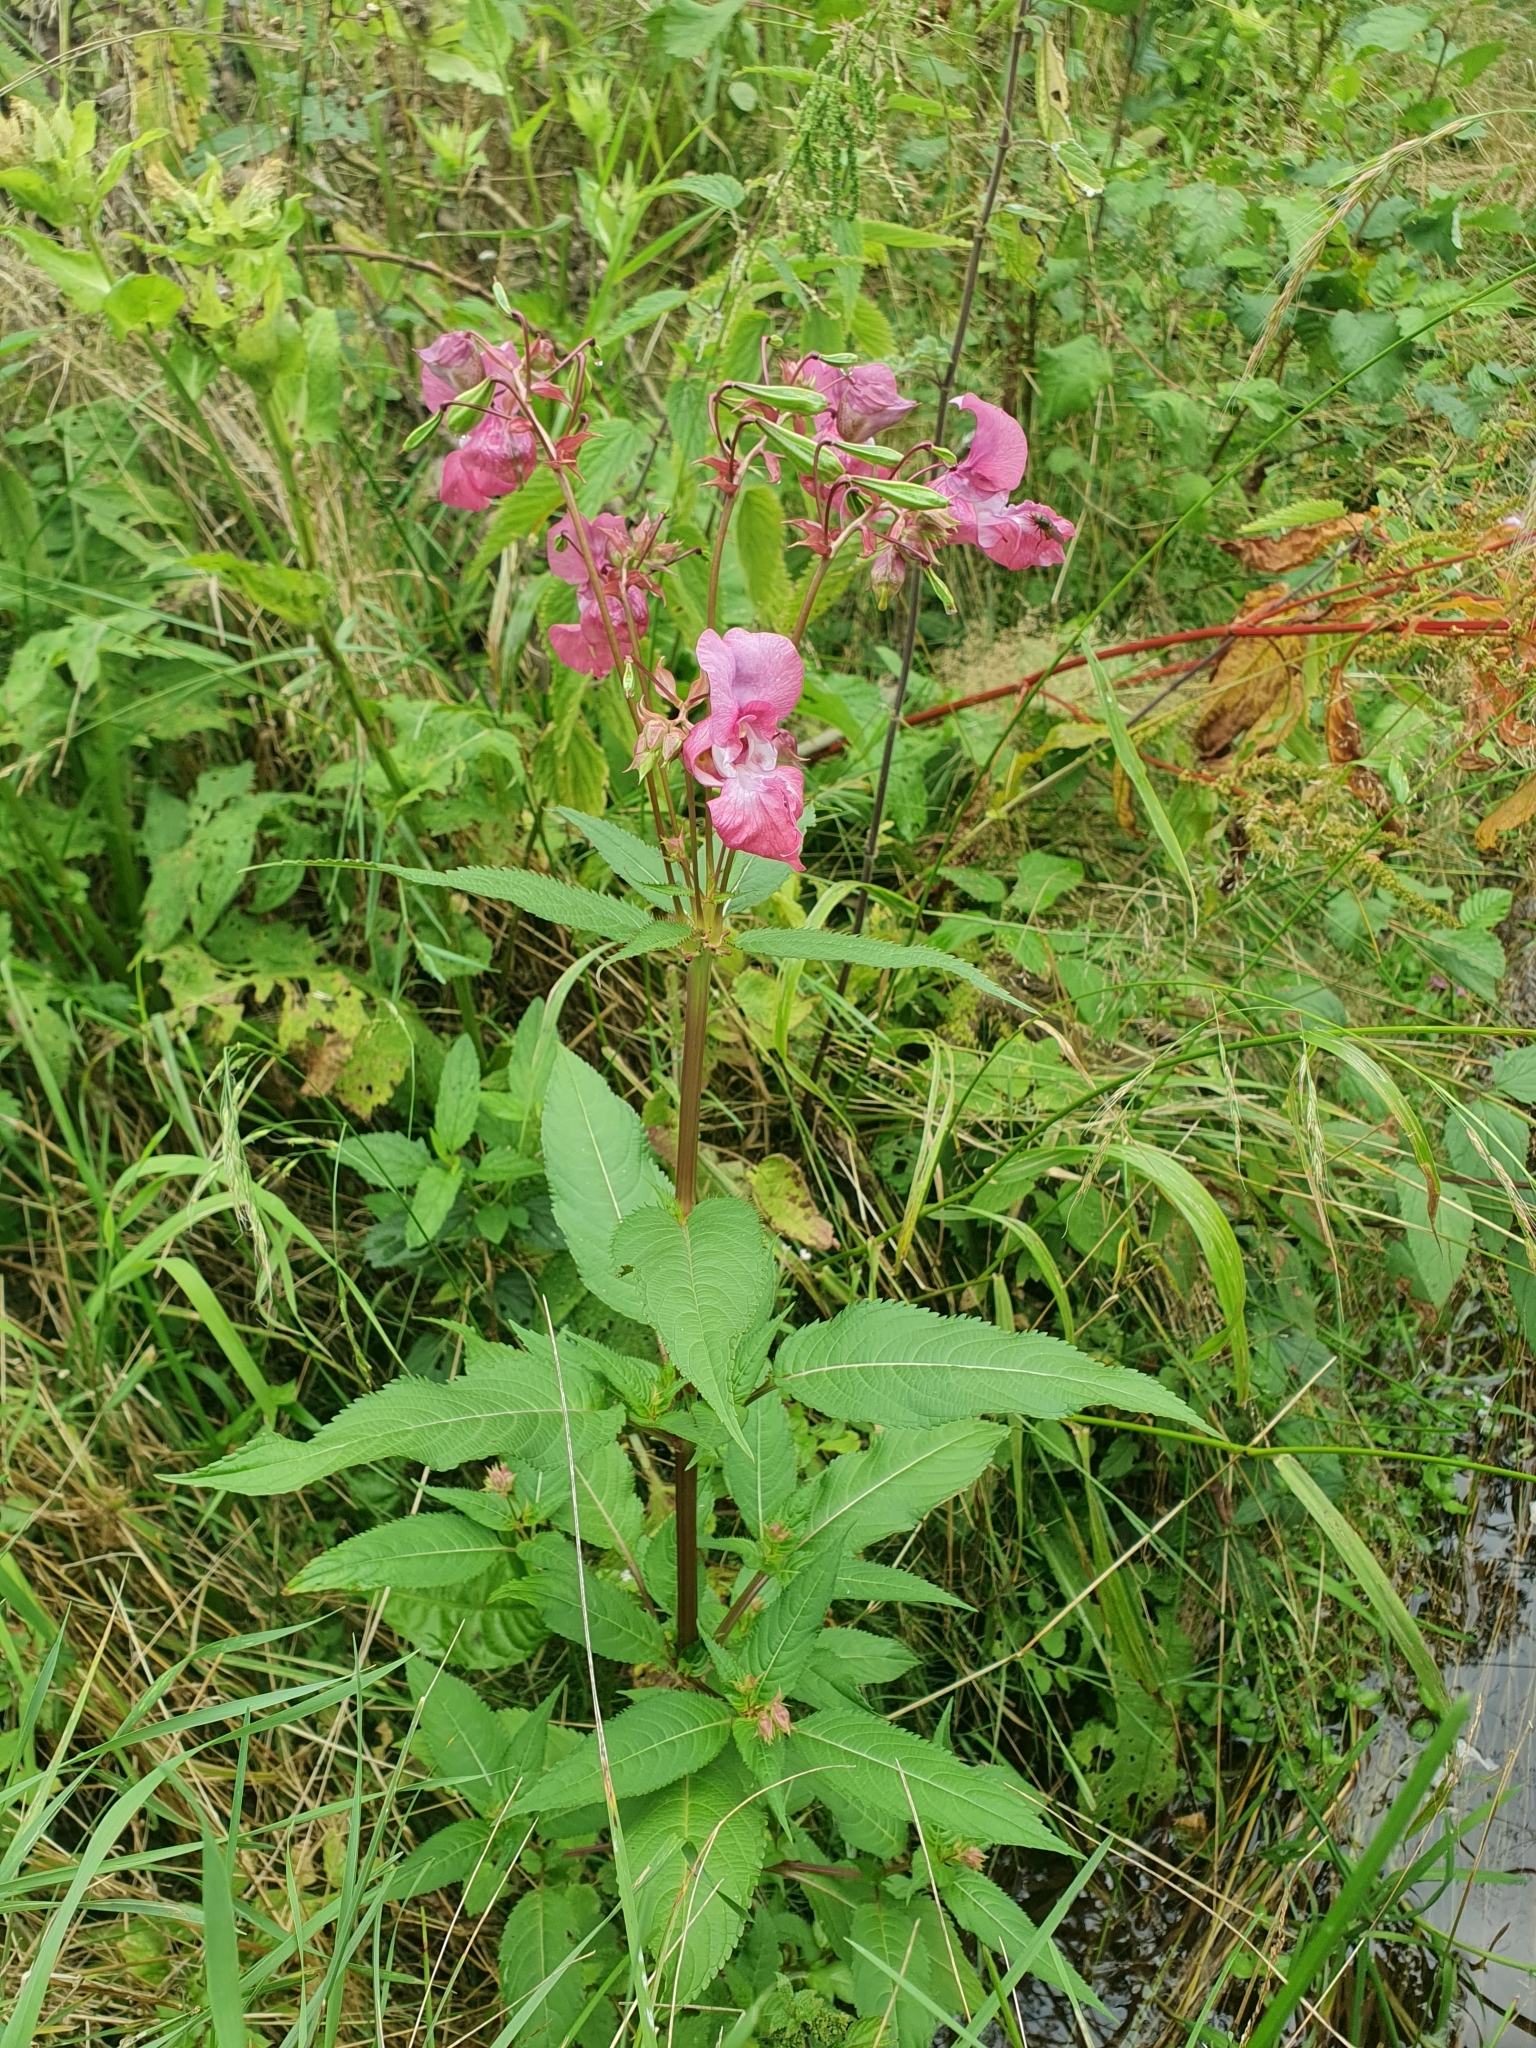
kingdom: Plantae
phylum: Tracheophyta
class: Magnoliopsida
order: Ericales
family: Balsaminaceae
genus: Impatiens
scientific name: Impatiens glandulifera
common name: Himalayan balsam
